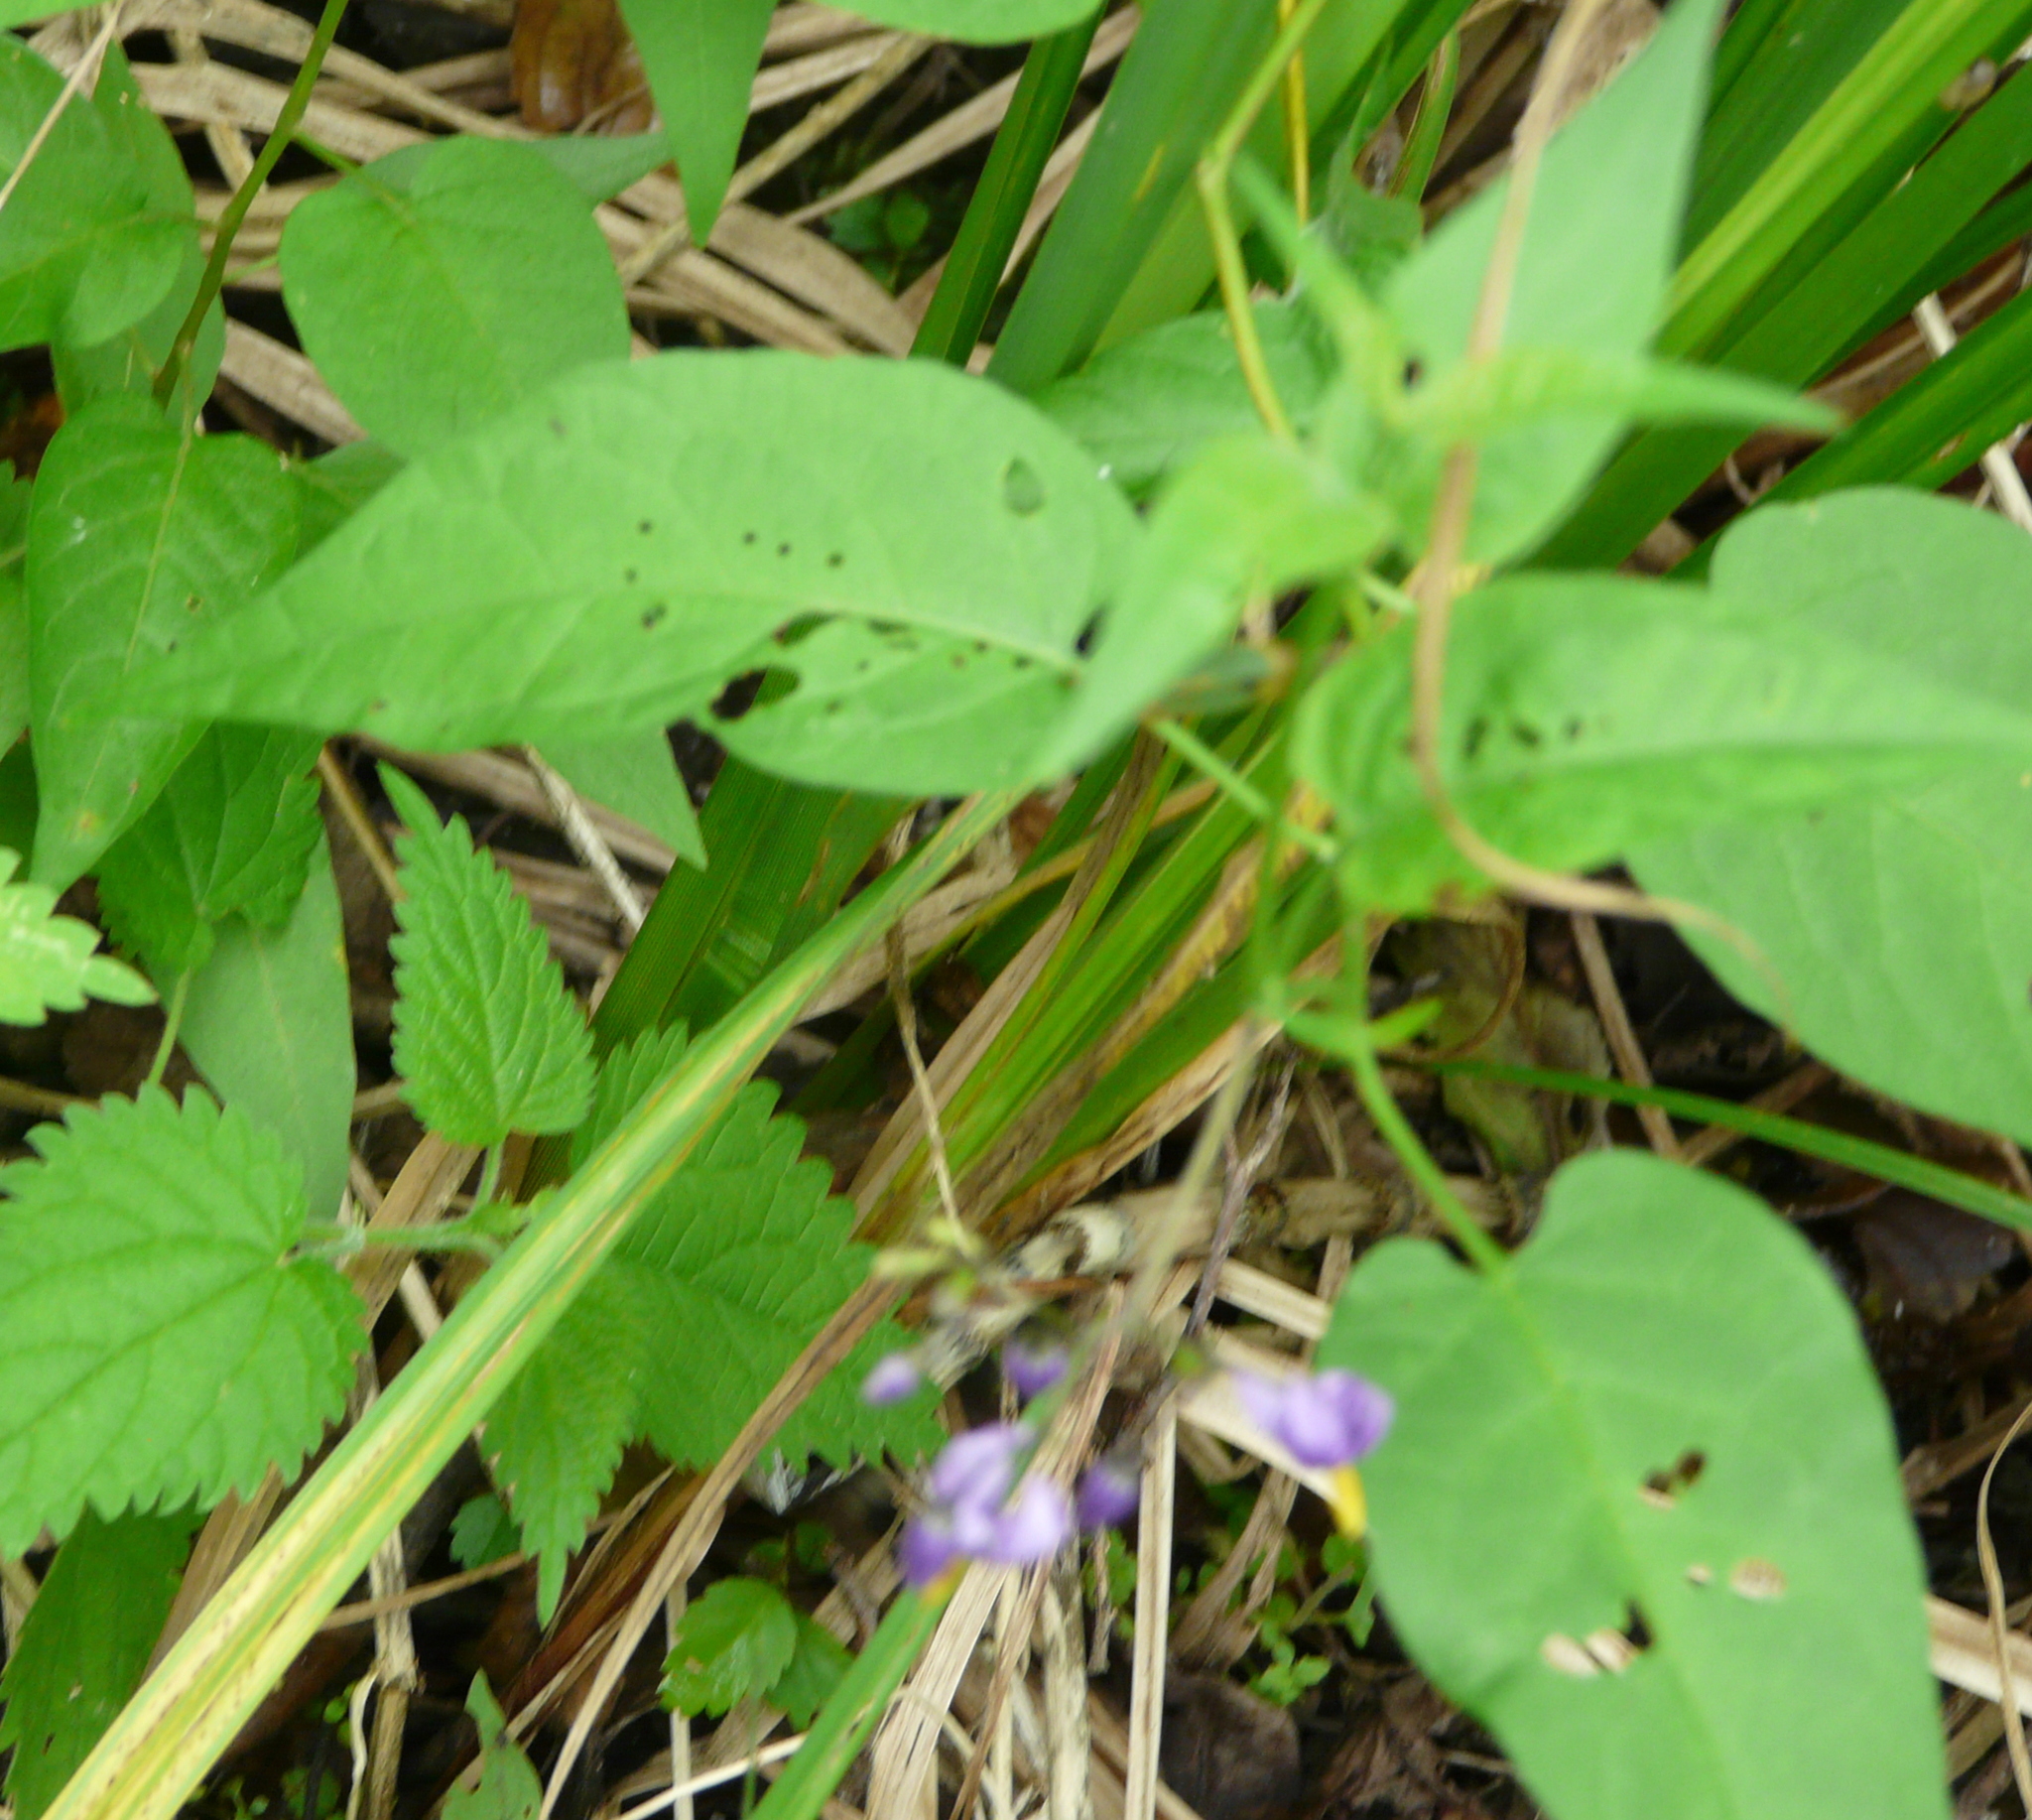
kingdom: Plantae
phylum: Tracheophyta
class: Magnoliopsida
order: Solanales
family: Solanaceae
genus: Solanum
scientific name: Solanum dulcamara
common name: Climbing nightshade
